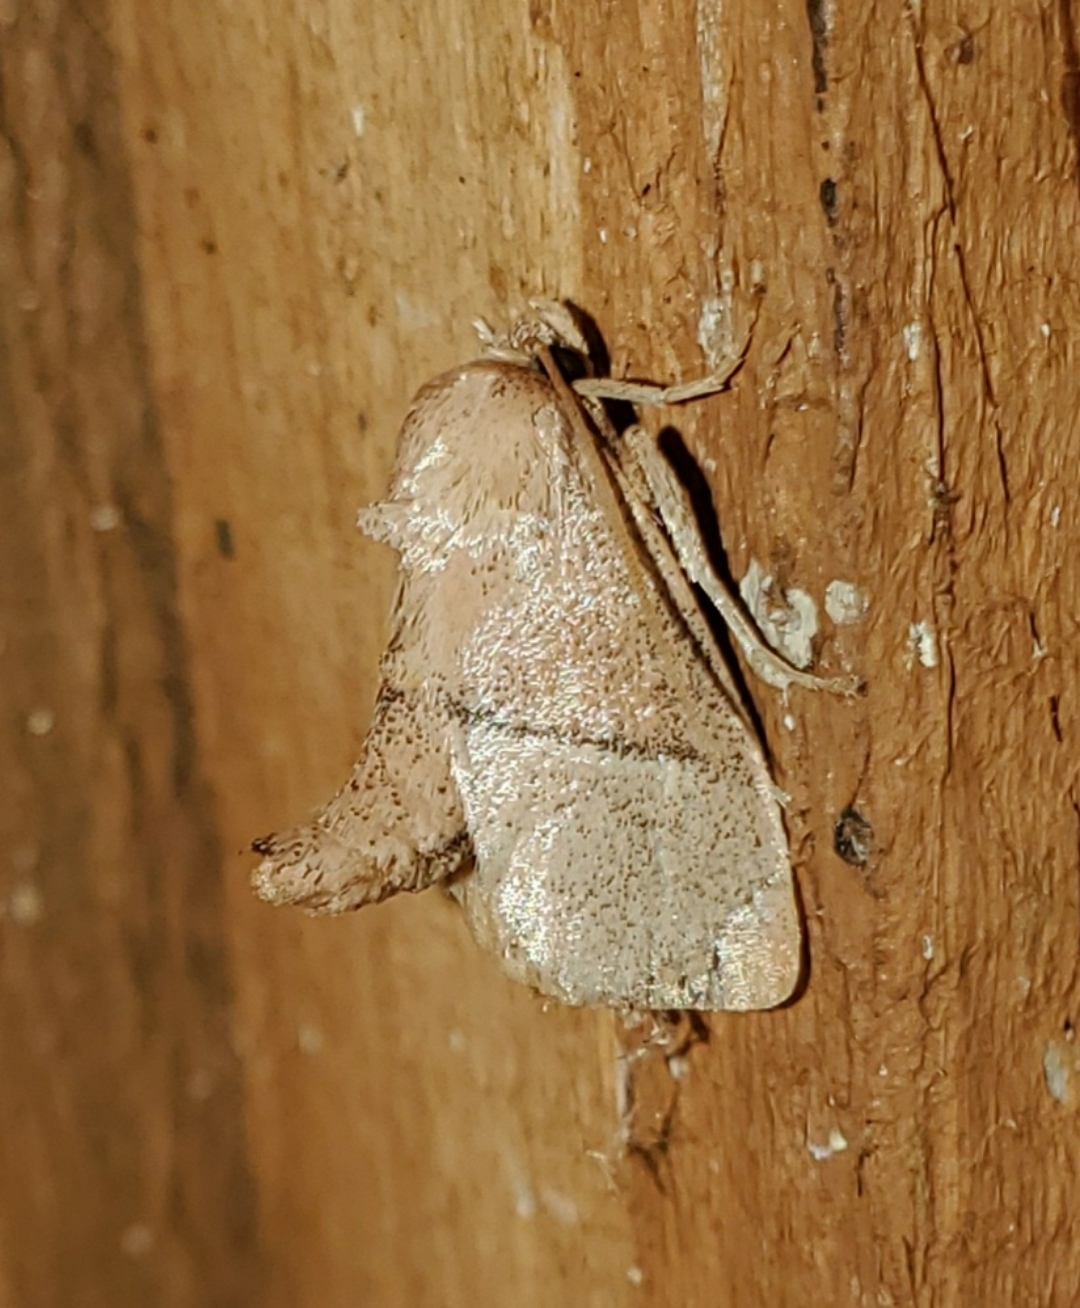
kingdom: Animalia
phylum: Arthropoda
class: Insecta
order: Lepidoptera
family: Limacodidae
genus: Apoda
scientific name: Apoda rectilinea
